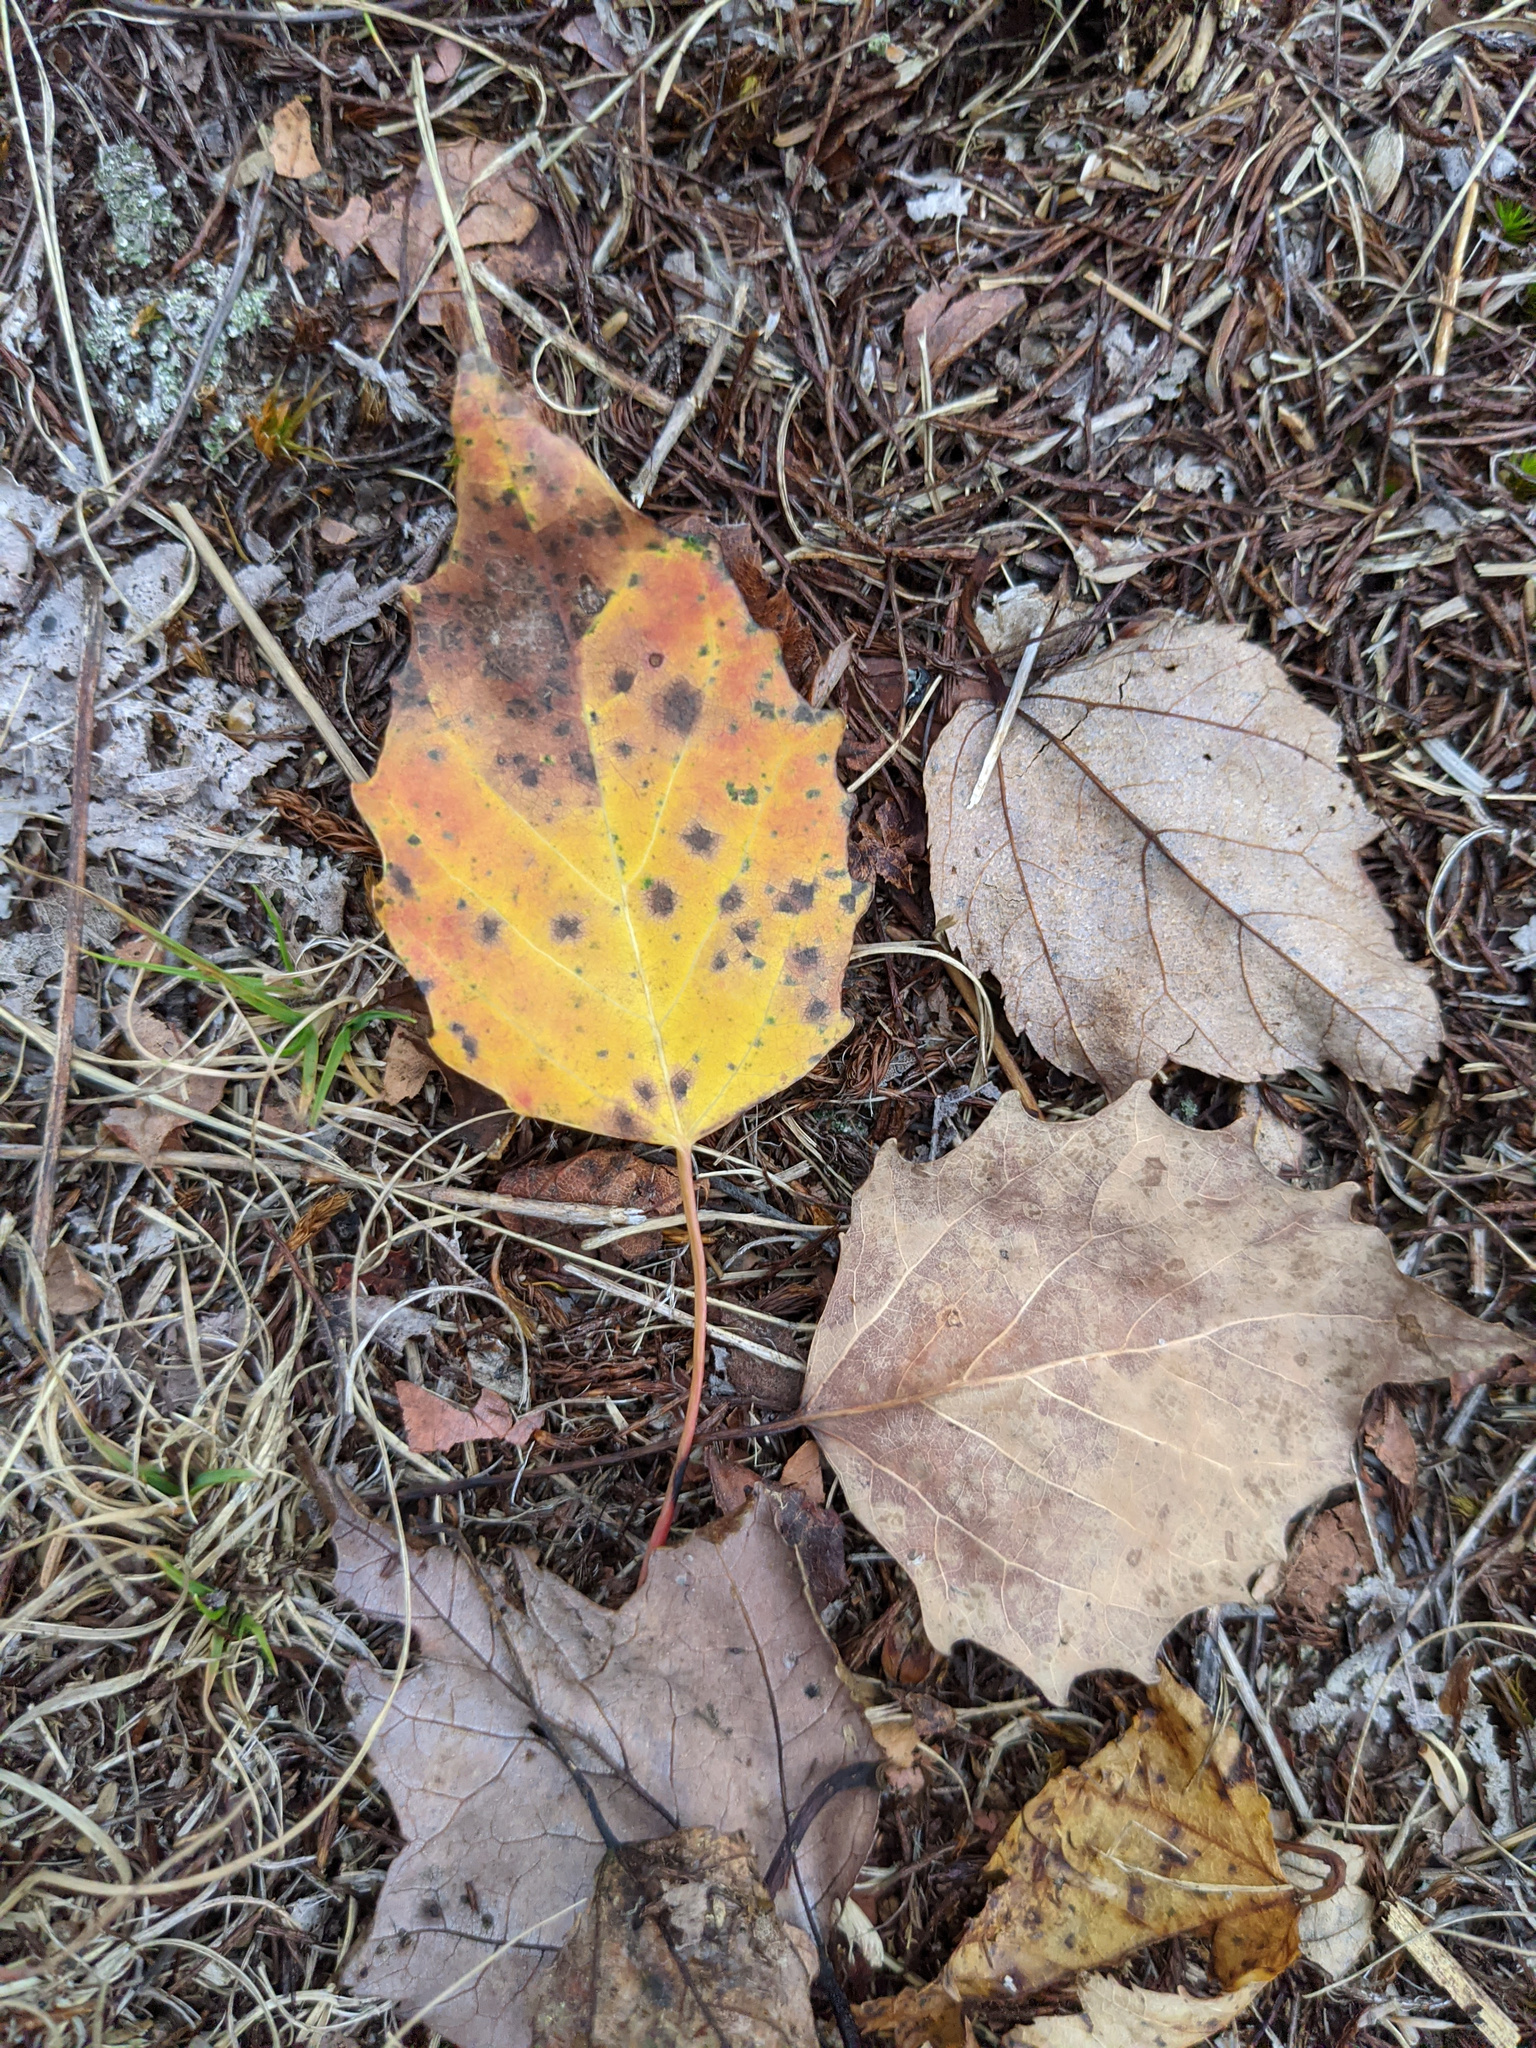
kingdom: Plantae
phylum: Tracheophyta
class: Magnoliopsida
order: Malpighiales
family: Salicaceae
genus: Populus
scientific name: Populus grandidentata
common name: Bigtooth aspen
